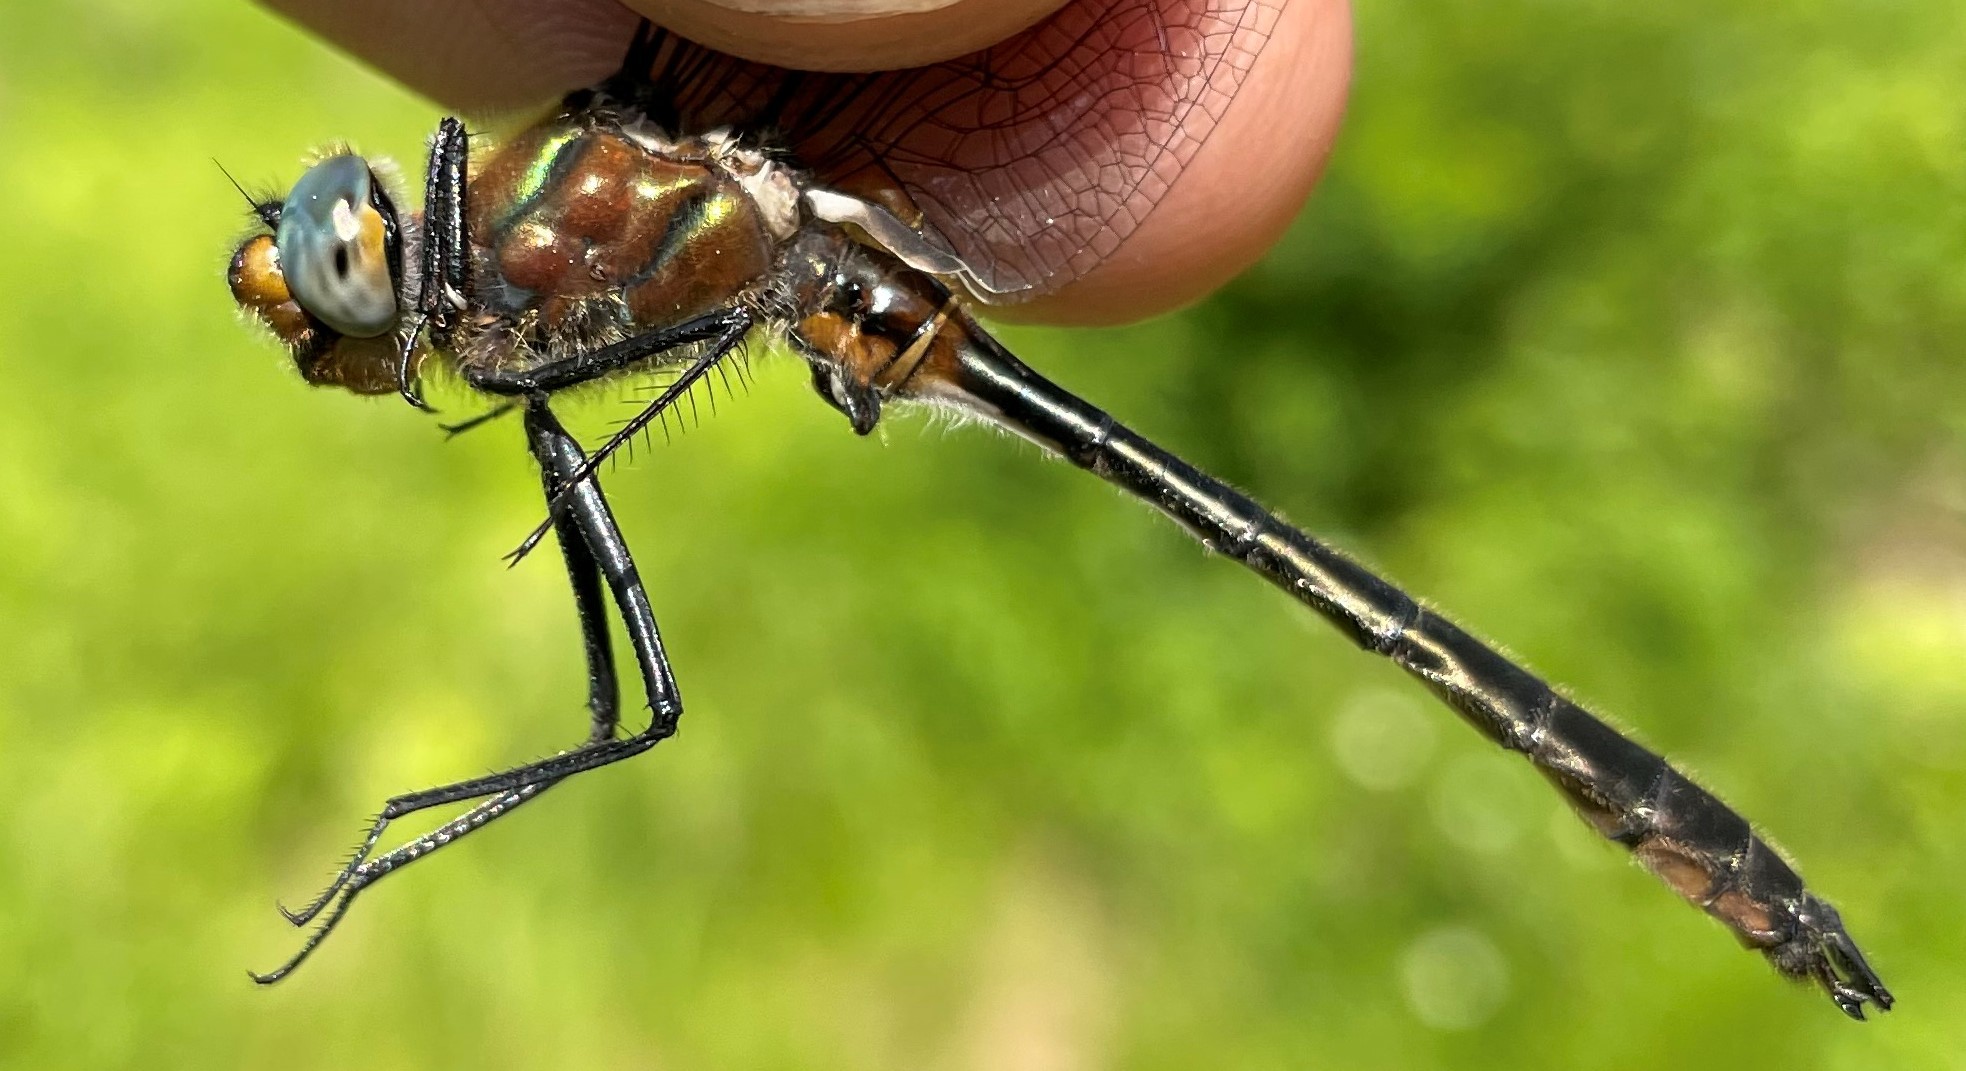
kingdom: Animalia
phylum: Arthropoda
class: Insecta
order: Odonata
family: Corduliidae
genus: Cordulia
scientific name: Cordulia shurtleffii
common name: American emerald
